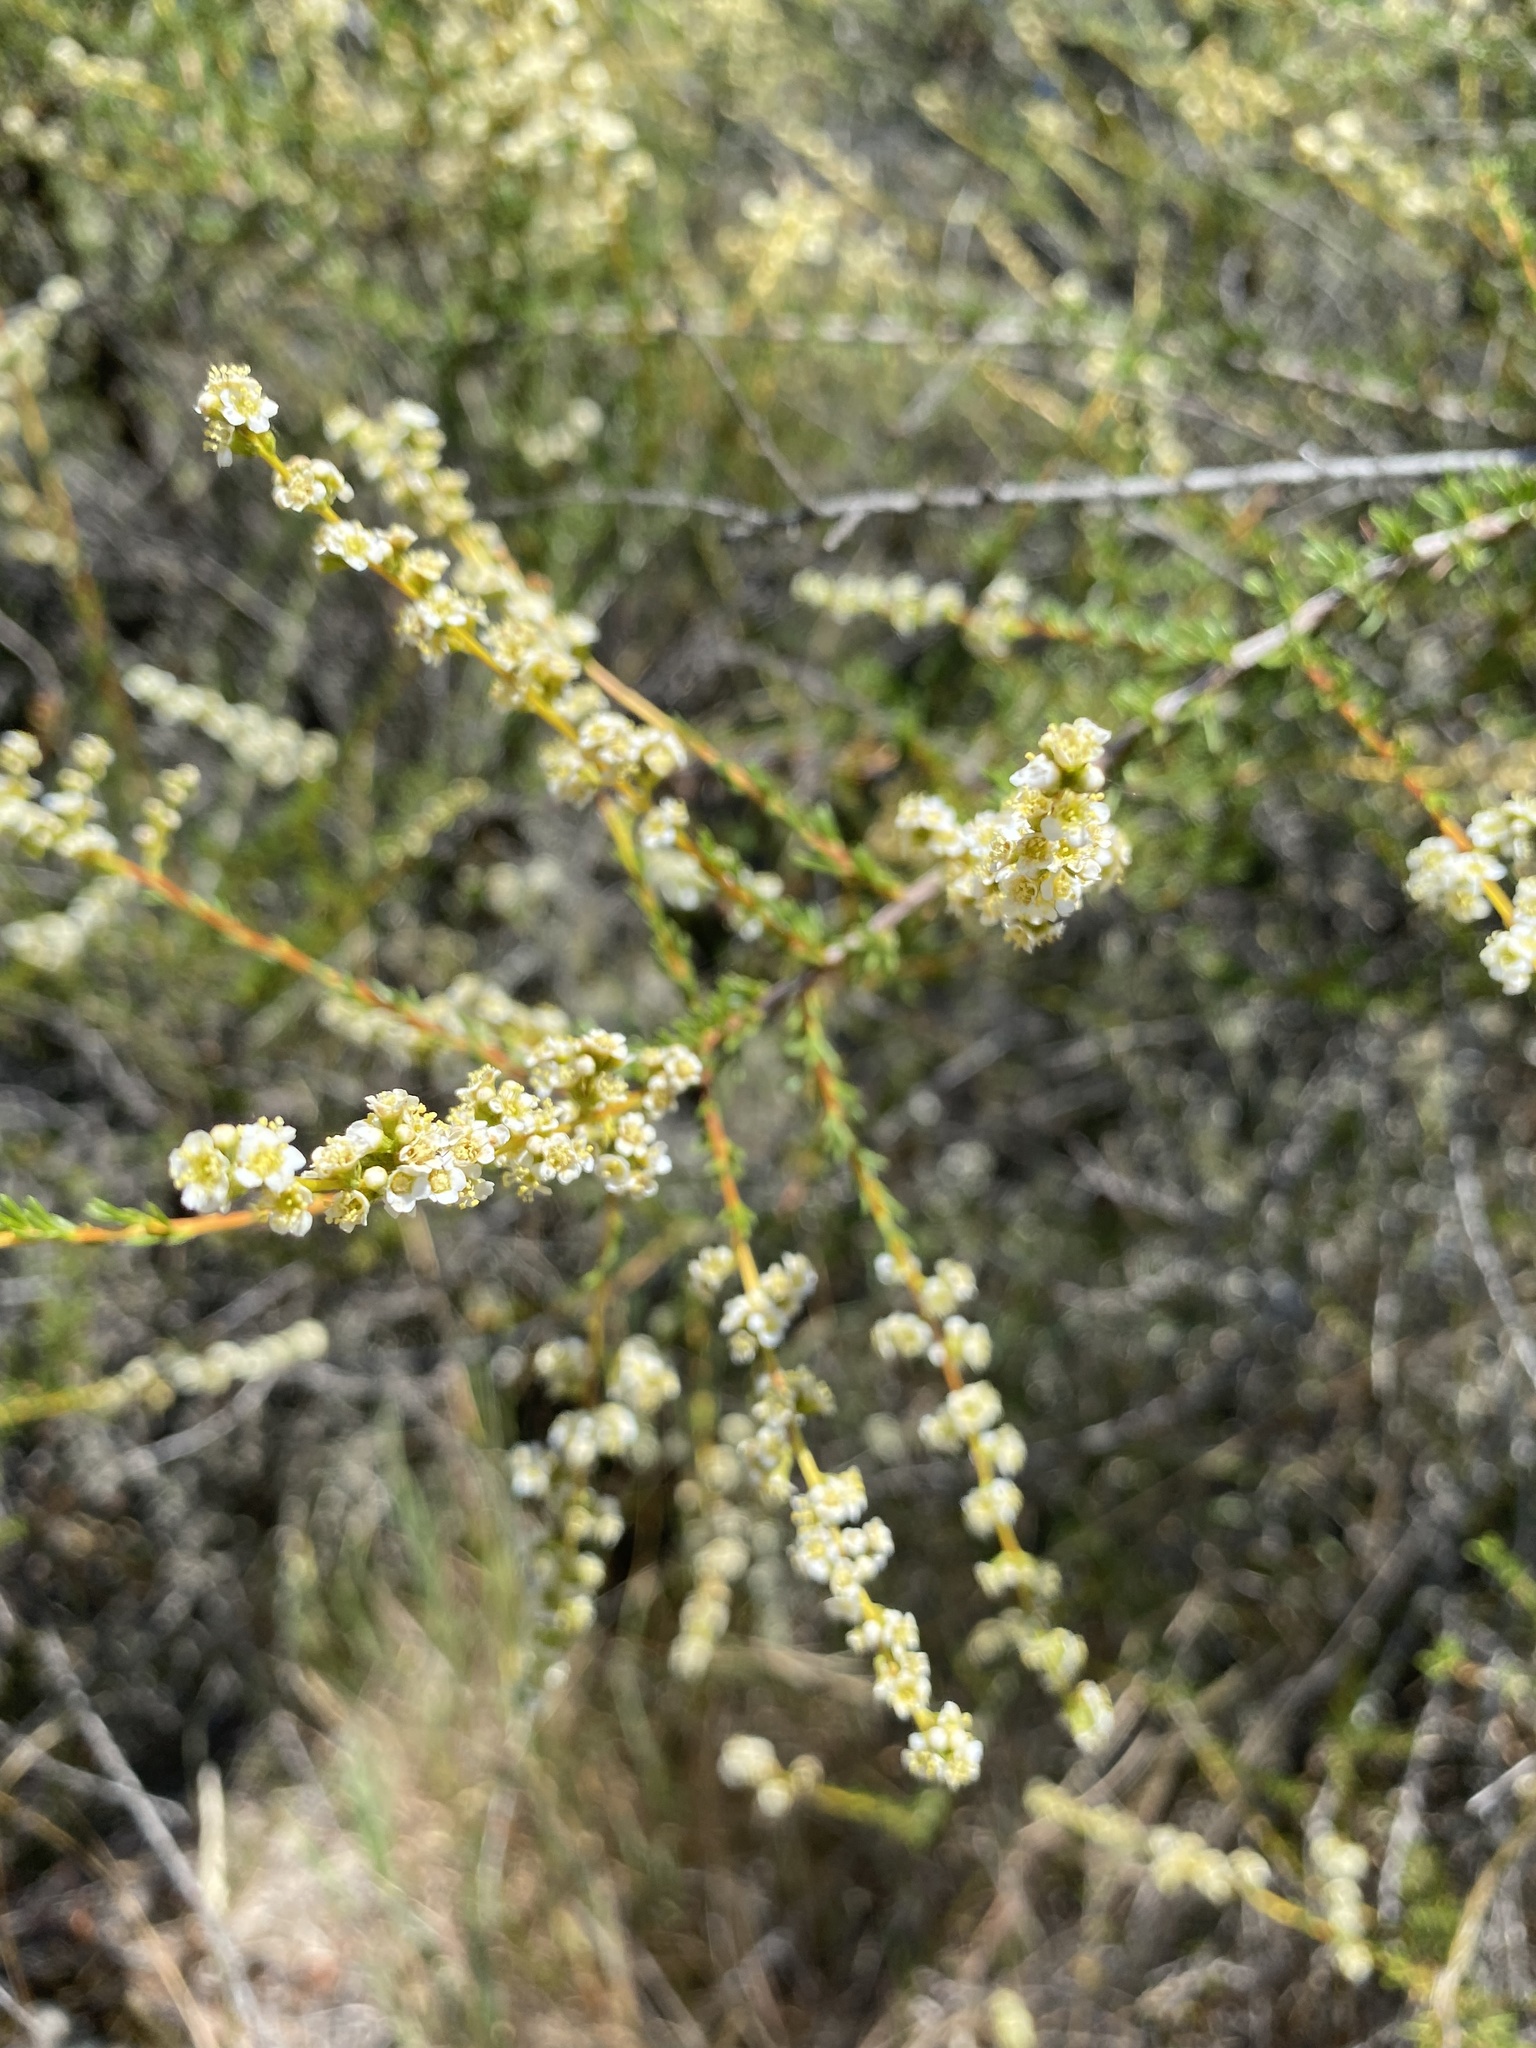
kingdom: Plantae
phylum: Tracheophyta
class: Magnoliopsida
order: Rosales
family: Rosaceae
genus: Adenostoma
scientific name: Adenostoma fasciculatum
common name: Chamise
